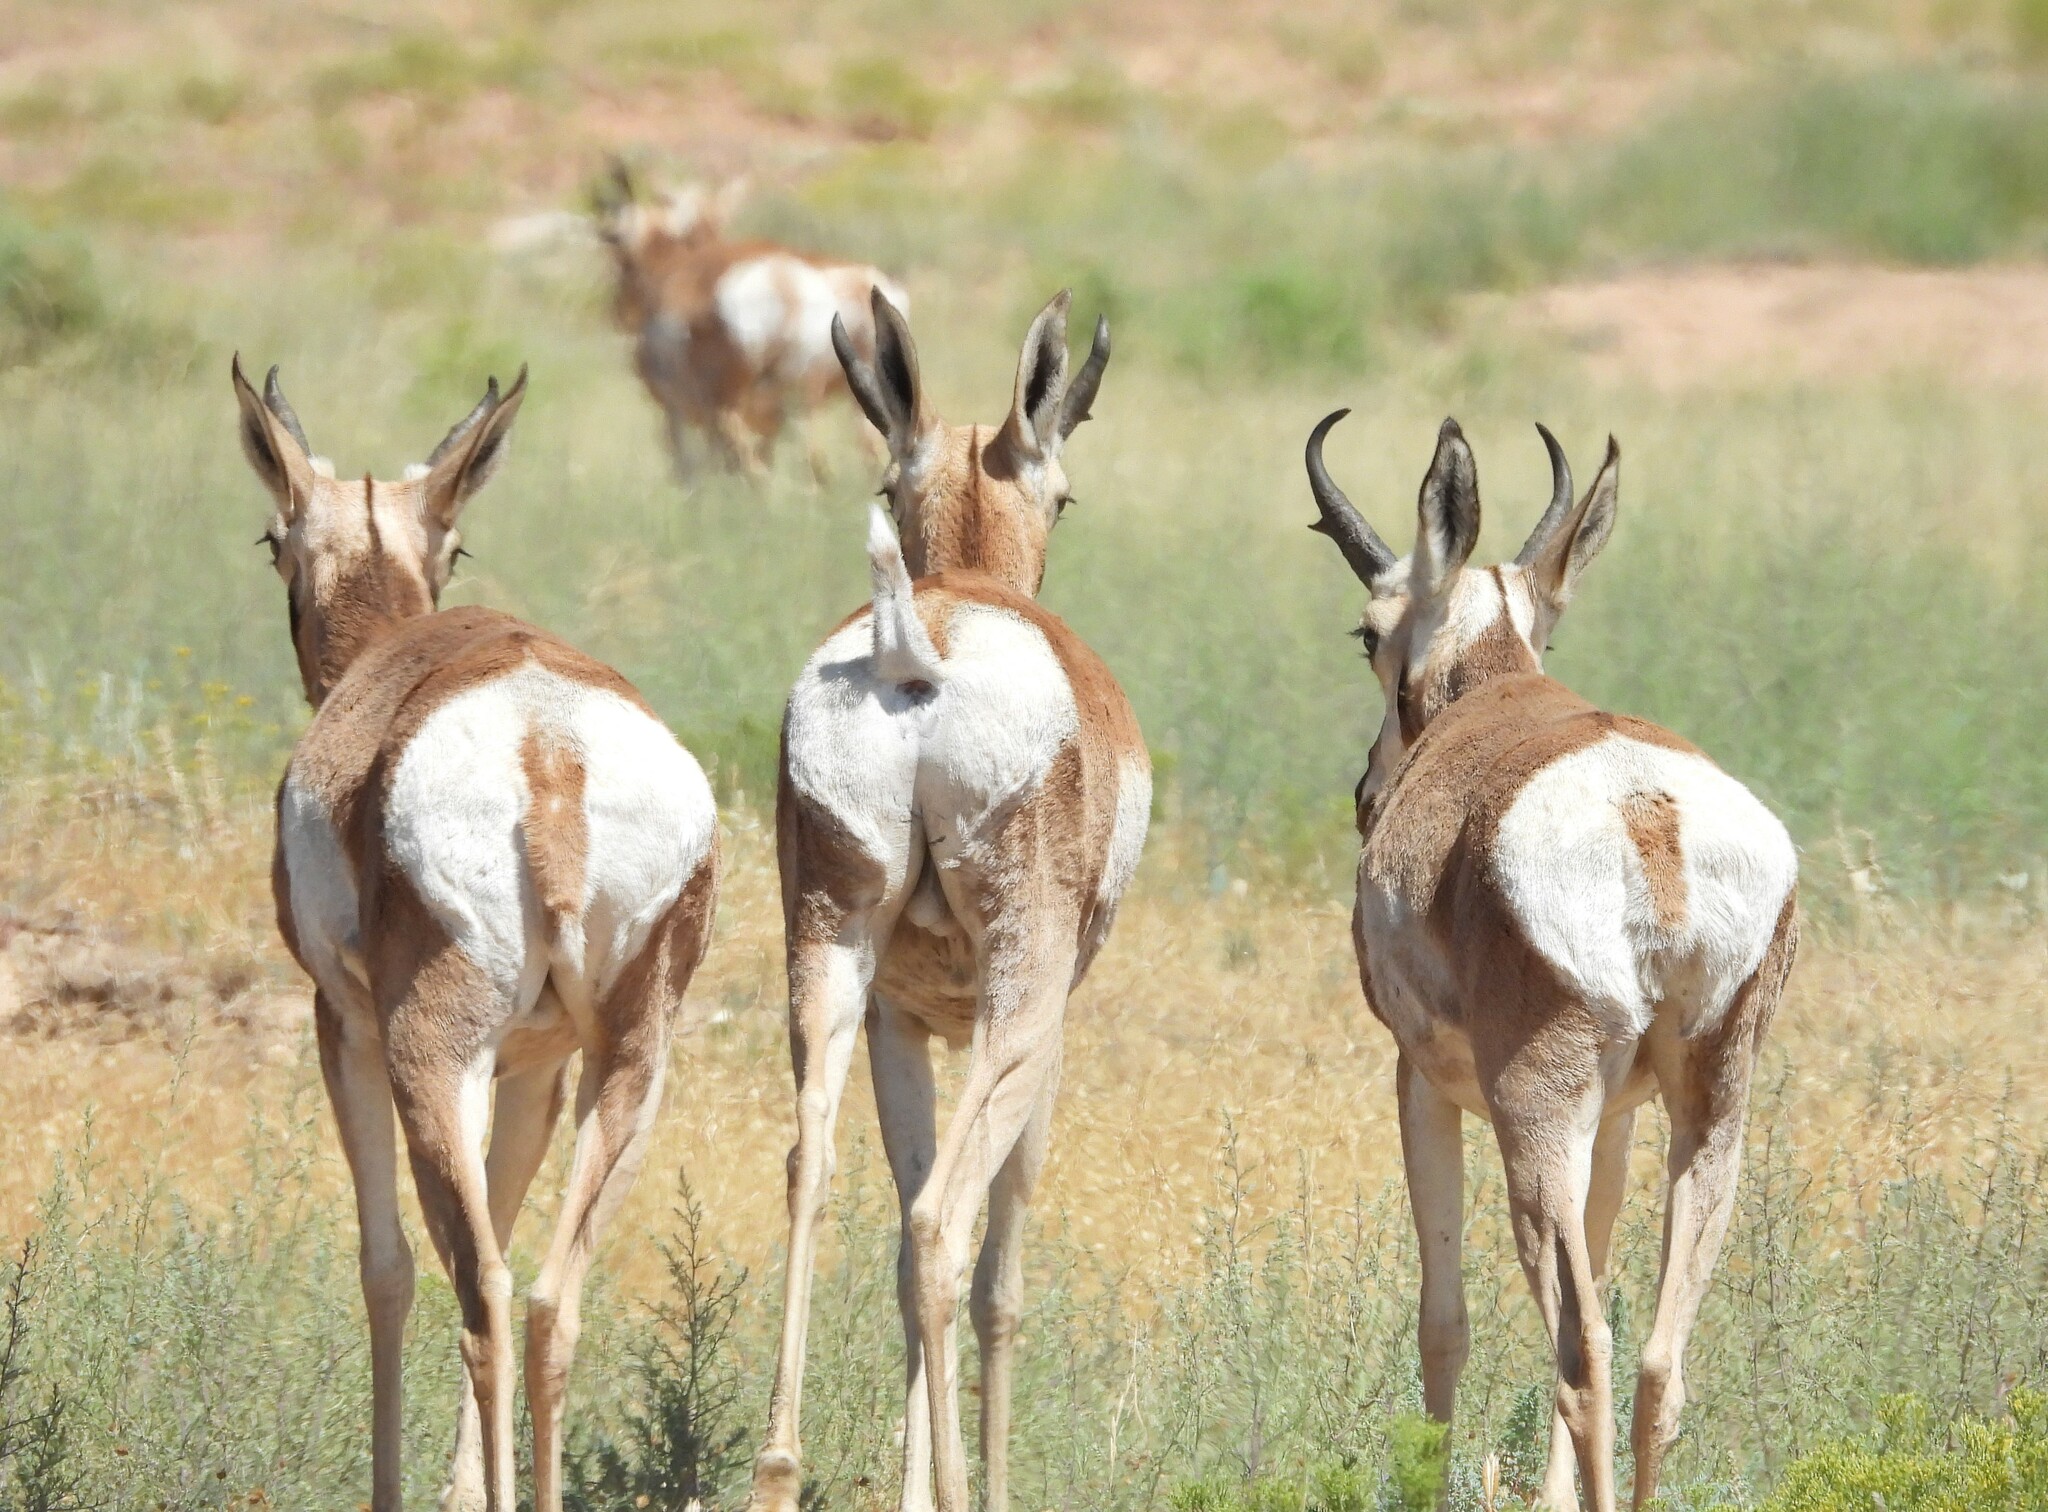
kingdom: Animalia
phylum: Chordata
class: Mammalia
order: Artiodactyla
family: Antilocapridae
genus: Antilocapra
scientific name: Antilocapra americana
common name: Pronghorn
